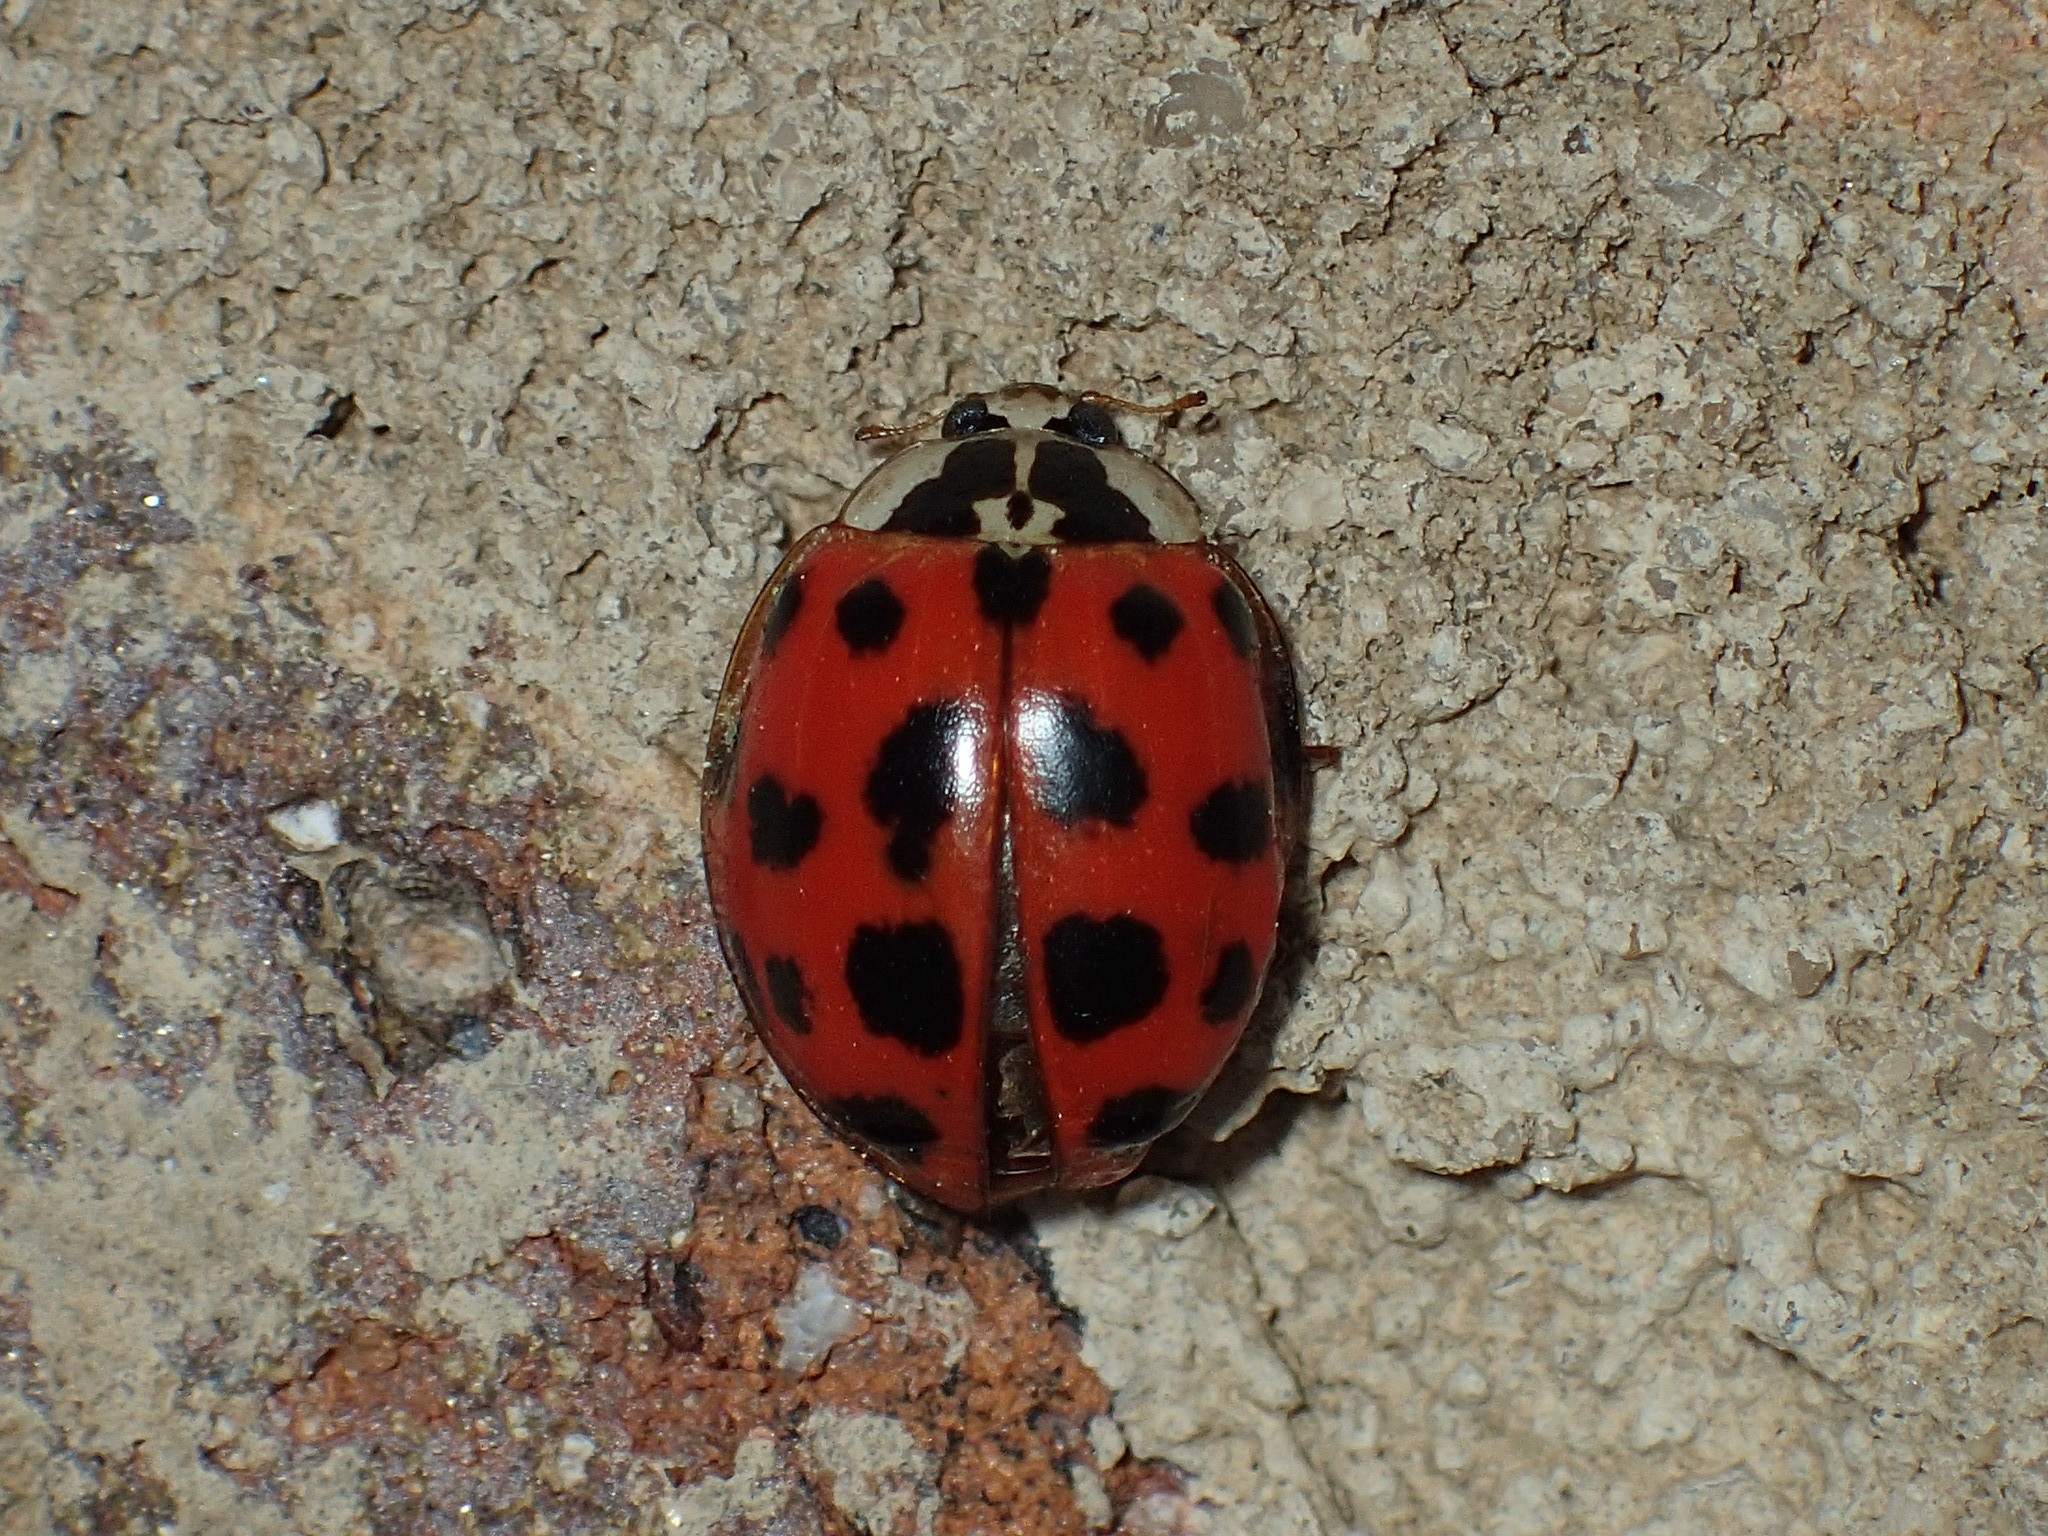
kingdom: Animalia
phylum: Arthropoda
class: Insecta
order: Coleoptera
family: Coccinellidae
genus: Harmonia
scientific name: Harmonia axyridis
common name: Harlequin ladybird
